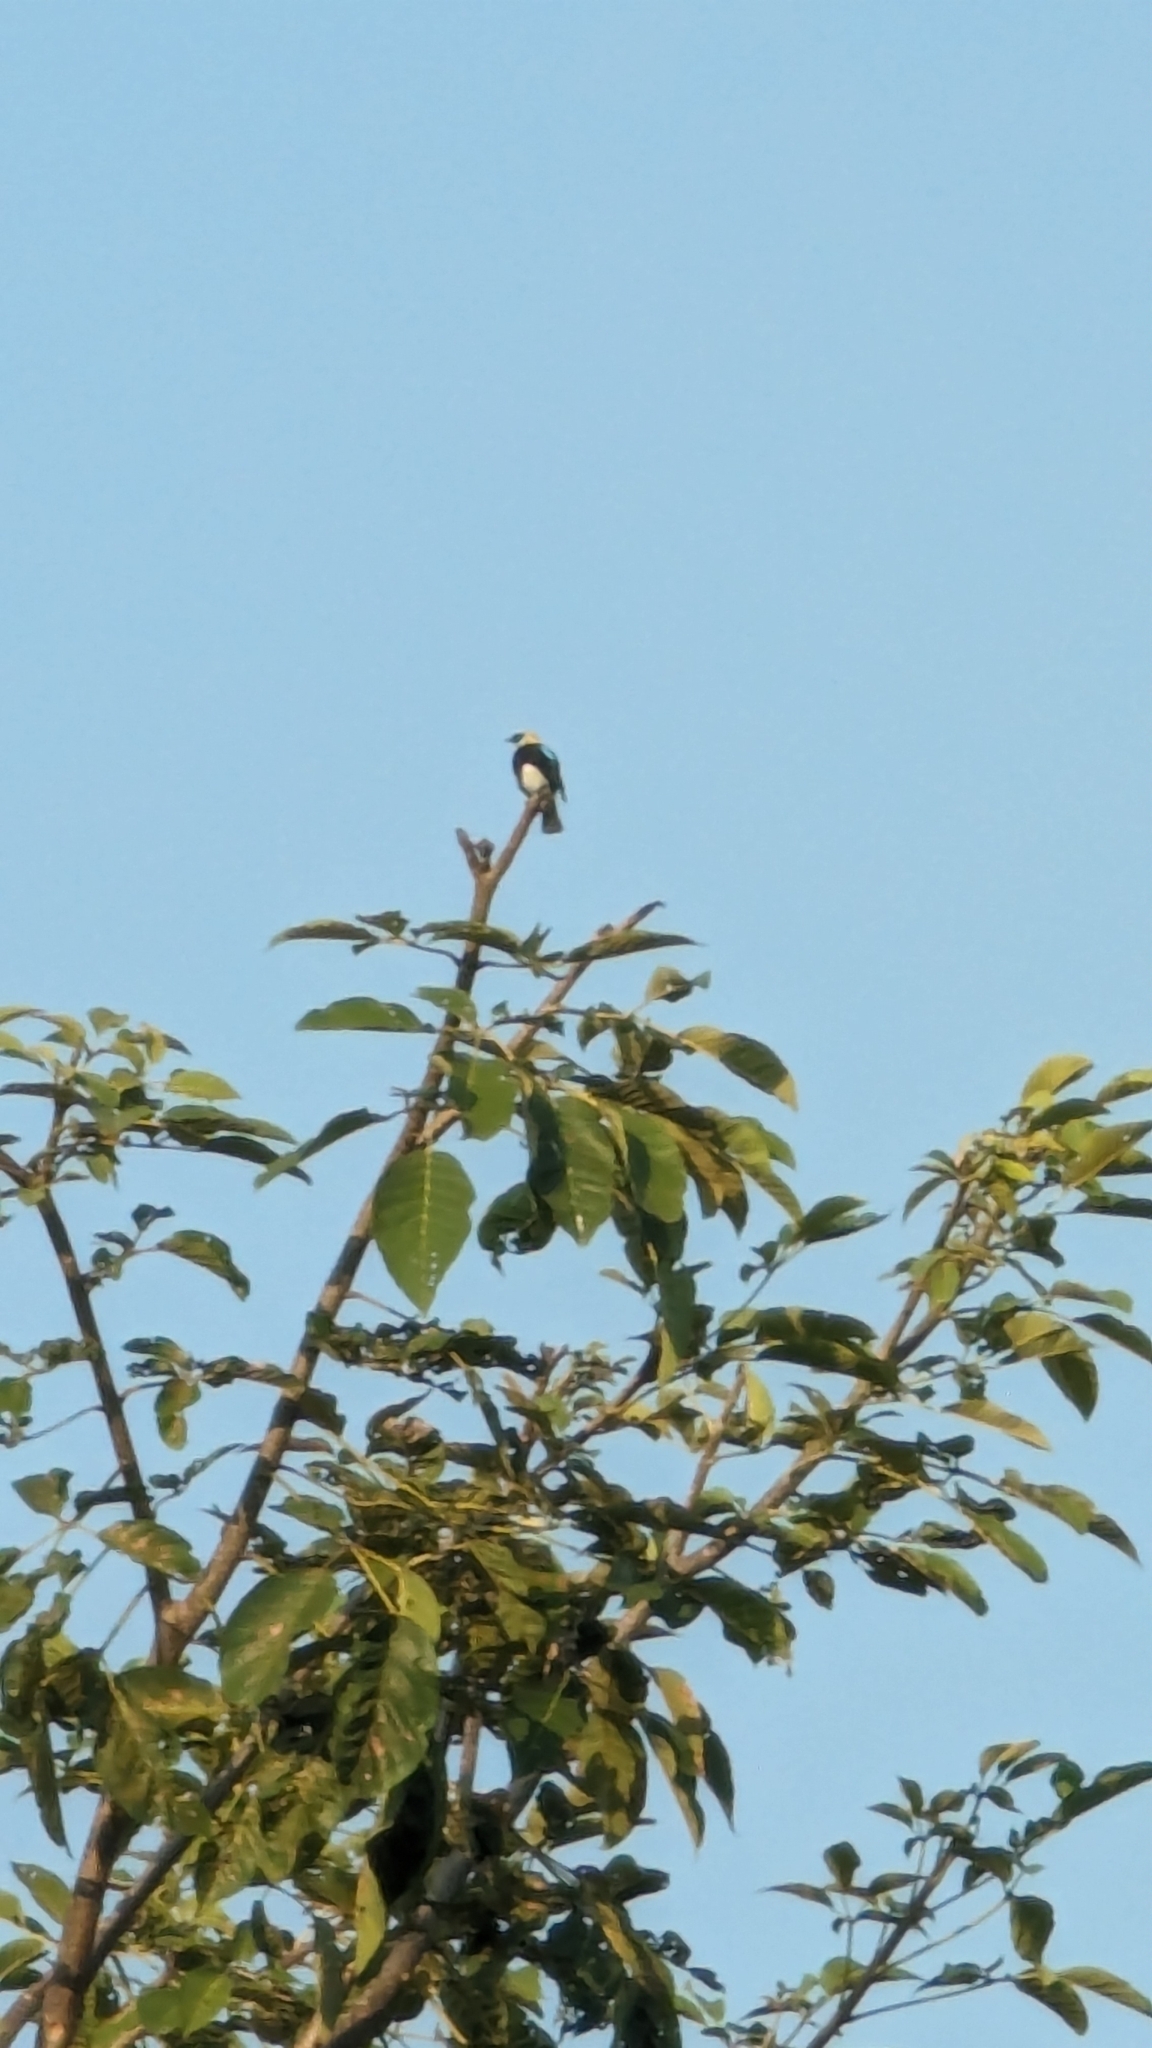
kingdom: Animalia
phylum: Chordata
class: Aves
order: Passeriformes
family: Thraupidae
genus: Stilpnia
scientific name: Stilpnia larvata
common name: Golden-hooded tanager
